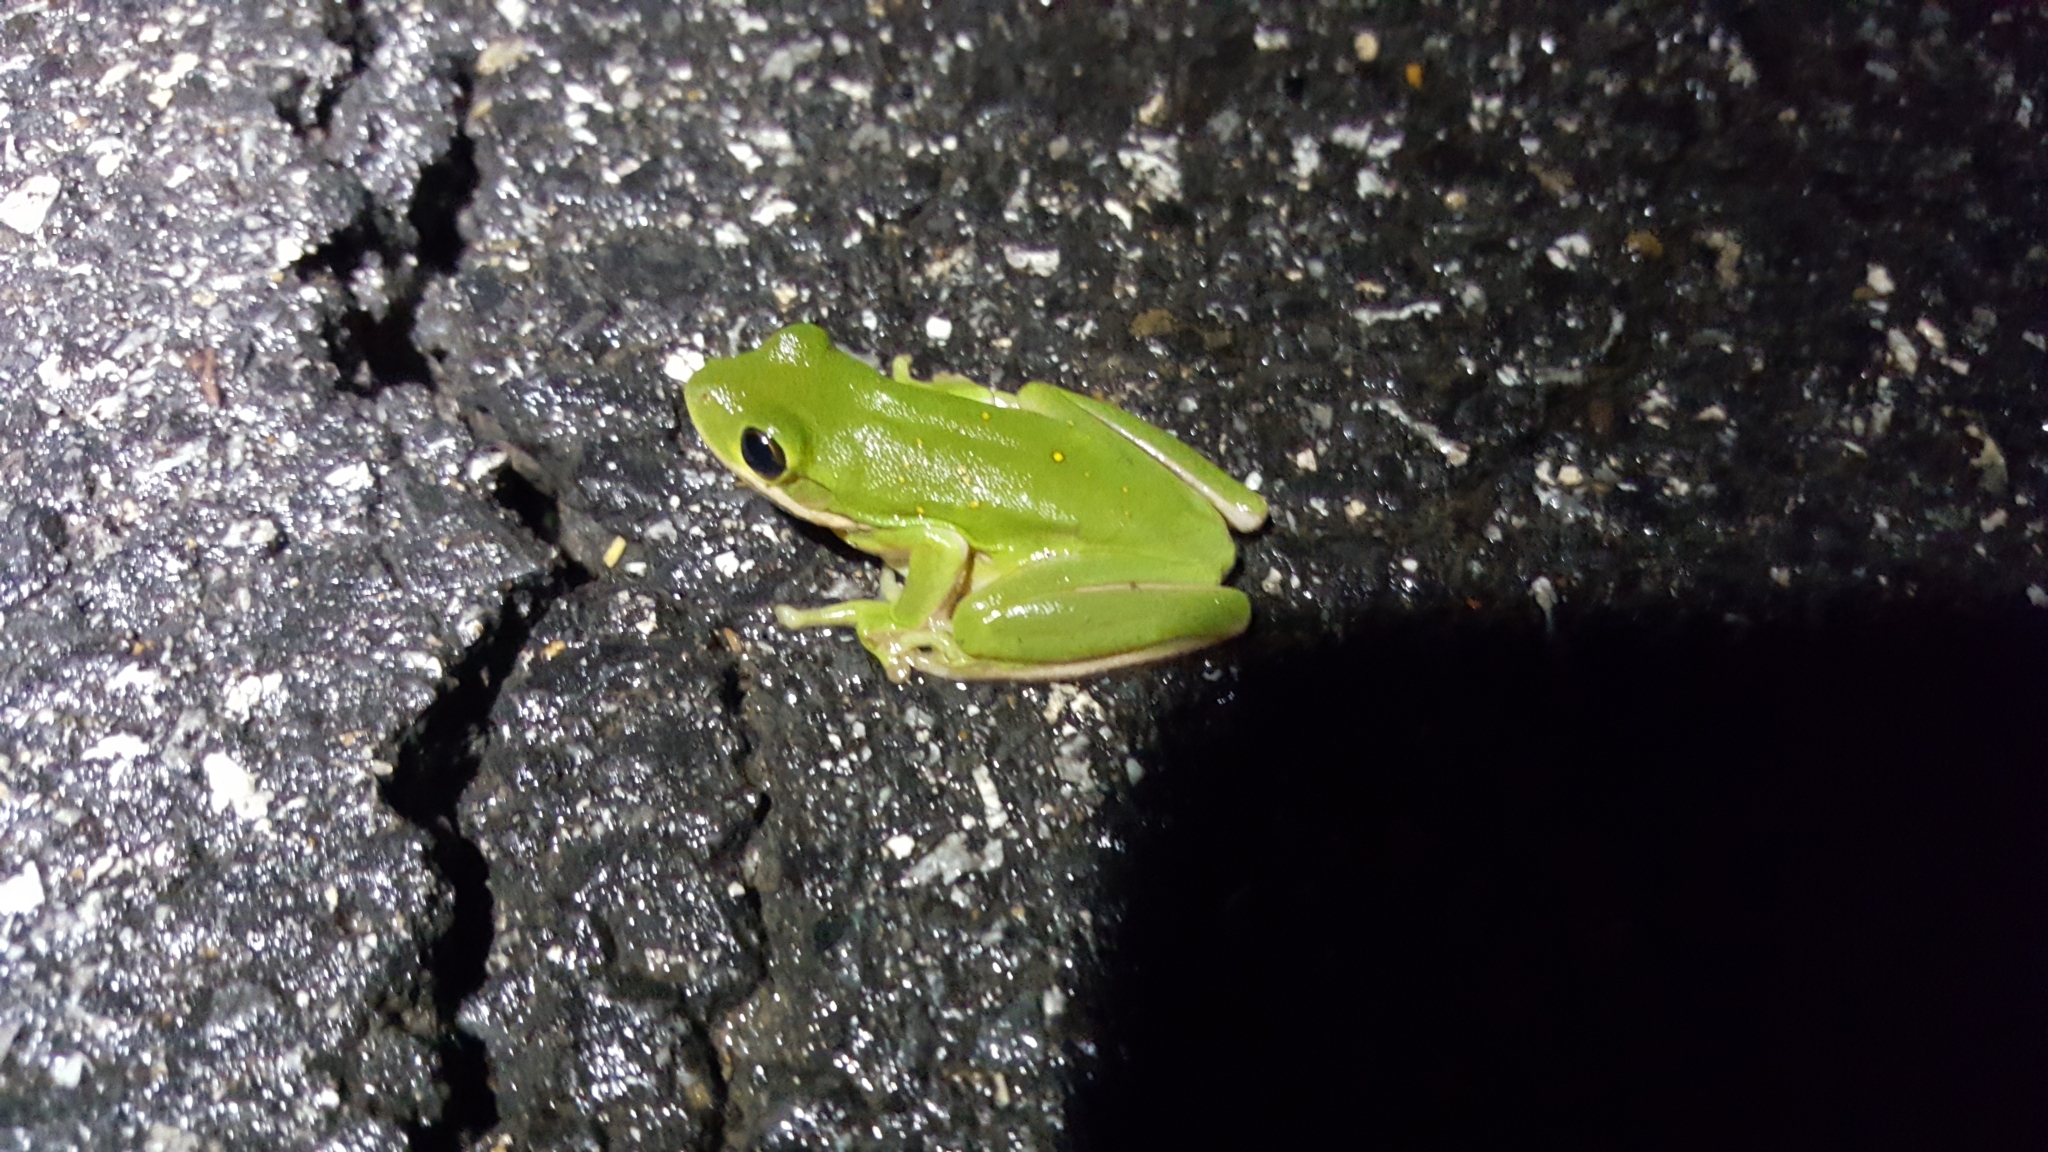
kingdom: Animalia
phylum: Chordata
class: Amphibia
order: Anura
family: Hylidae
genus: Dryophytes
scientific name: Dryophytes cinereus
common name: Green treefrog
